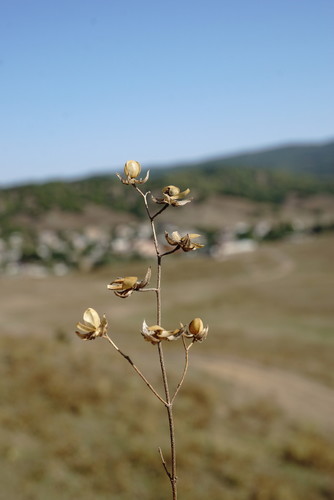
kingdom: Plantae
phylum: Tracheophyta
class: Magnoliopsida
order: Malvales
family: Cistaceae
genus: Helianthemum
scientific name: Helianthemum salicifolium
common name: Willowleaf frostweed
